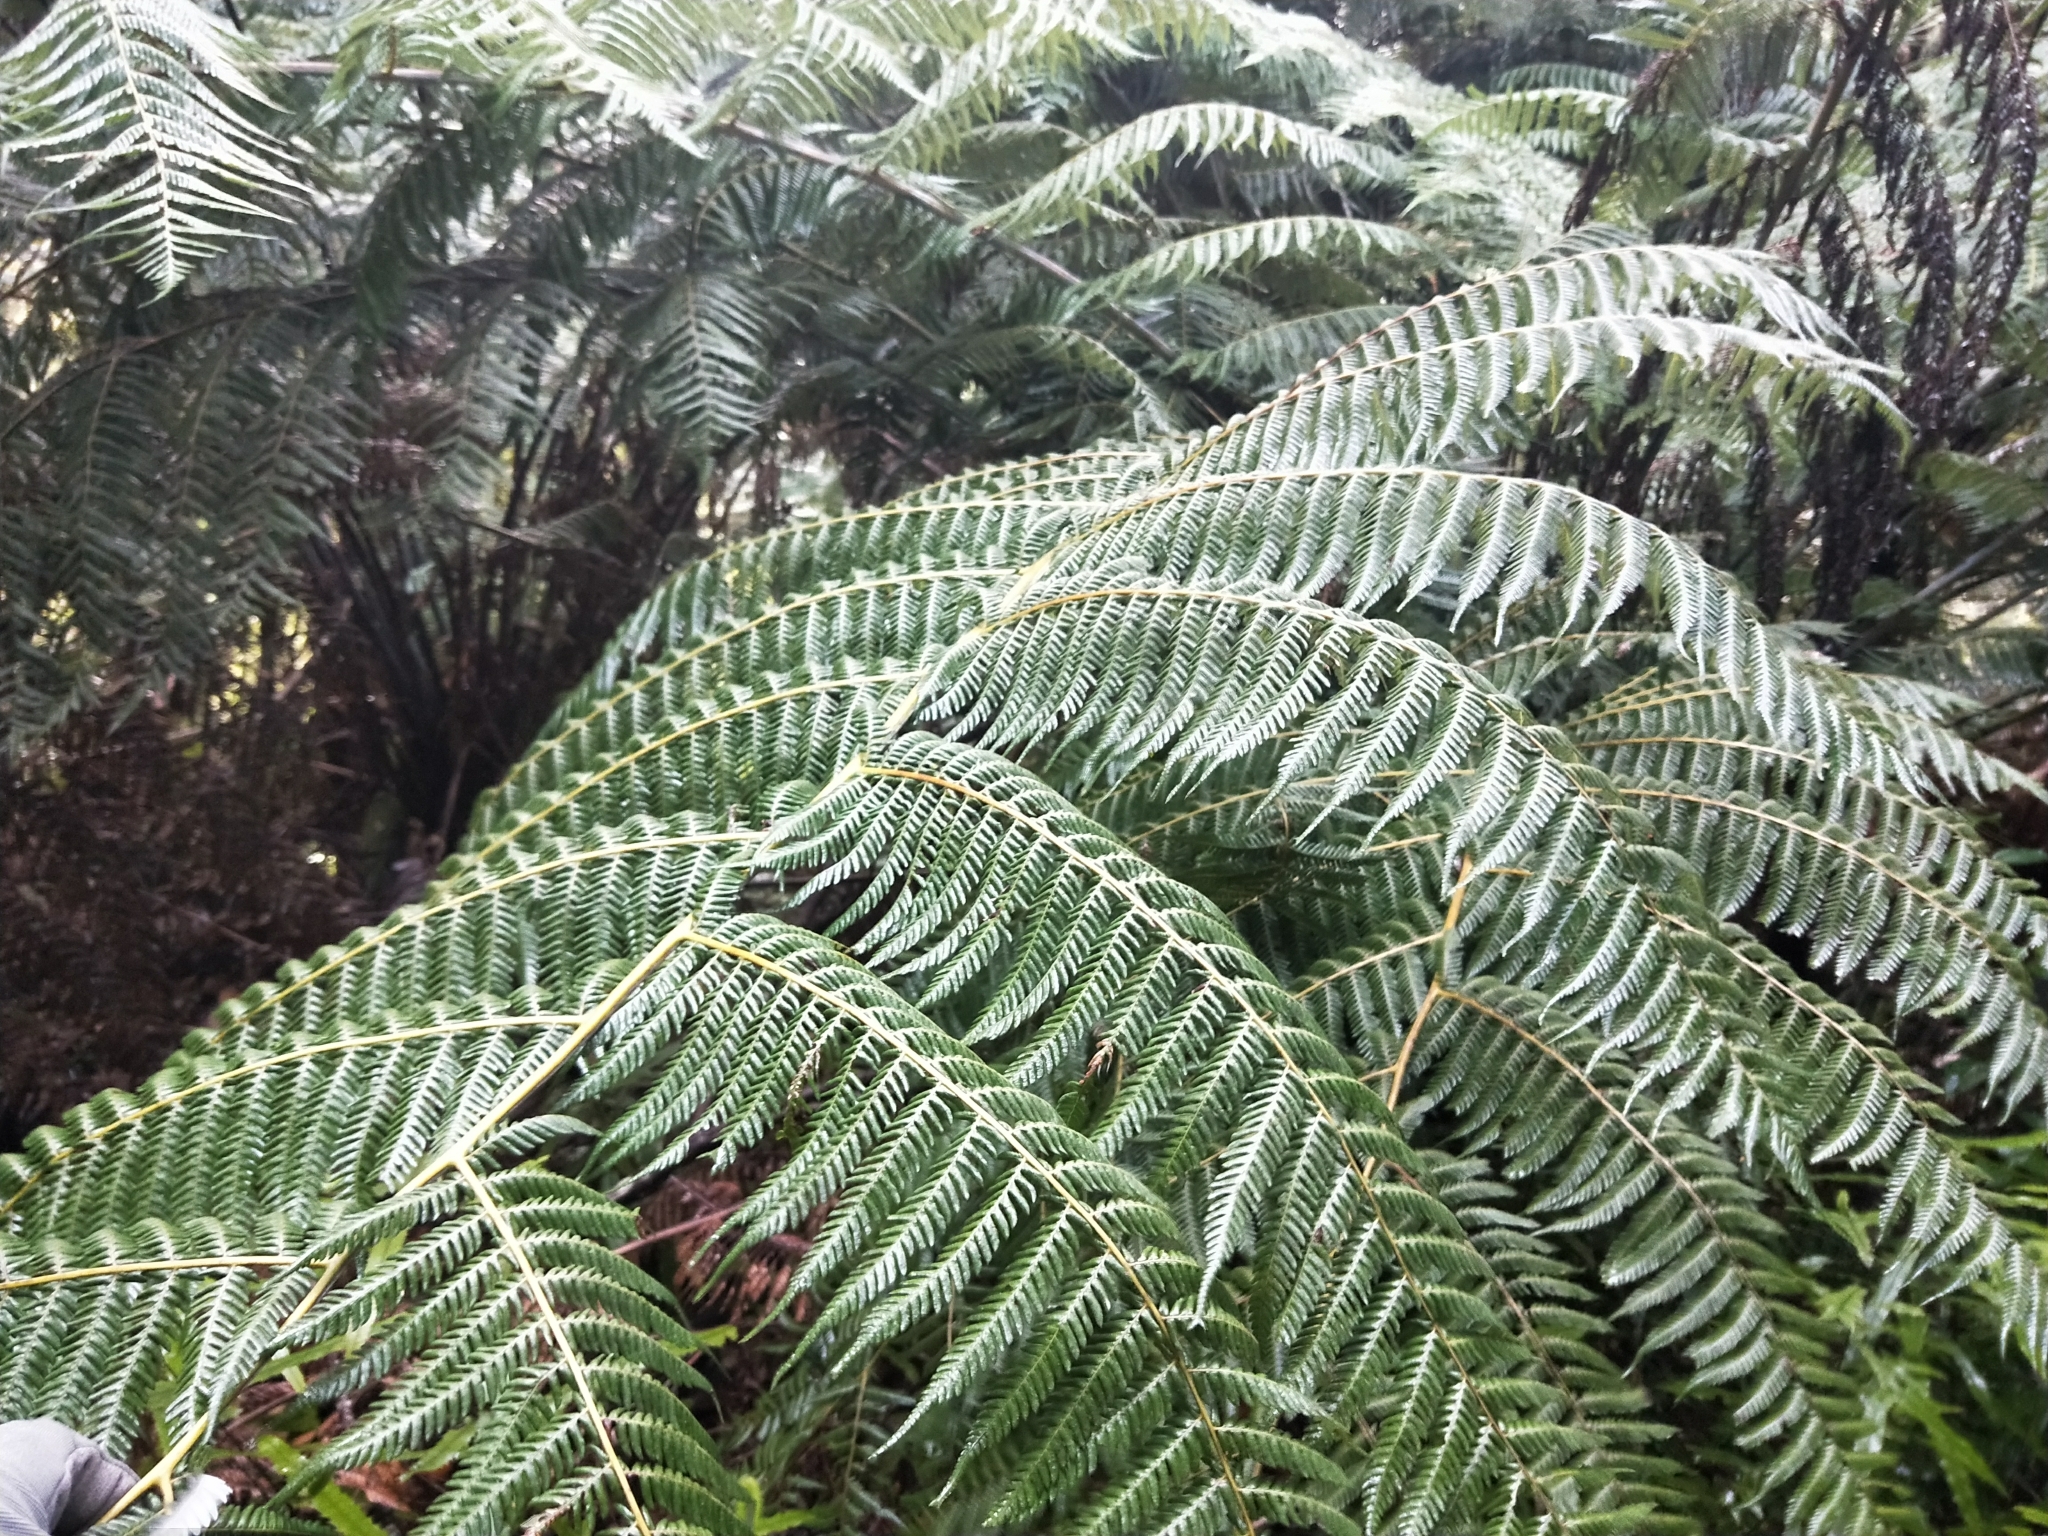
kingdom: Plantae
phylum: Tracheophyta
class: Polypodiopsida
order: Cyatheales
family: Cyatheaceae
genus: Alsophila
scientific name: Alsophila dealbata
